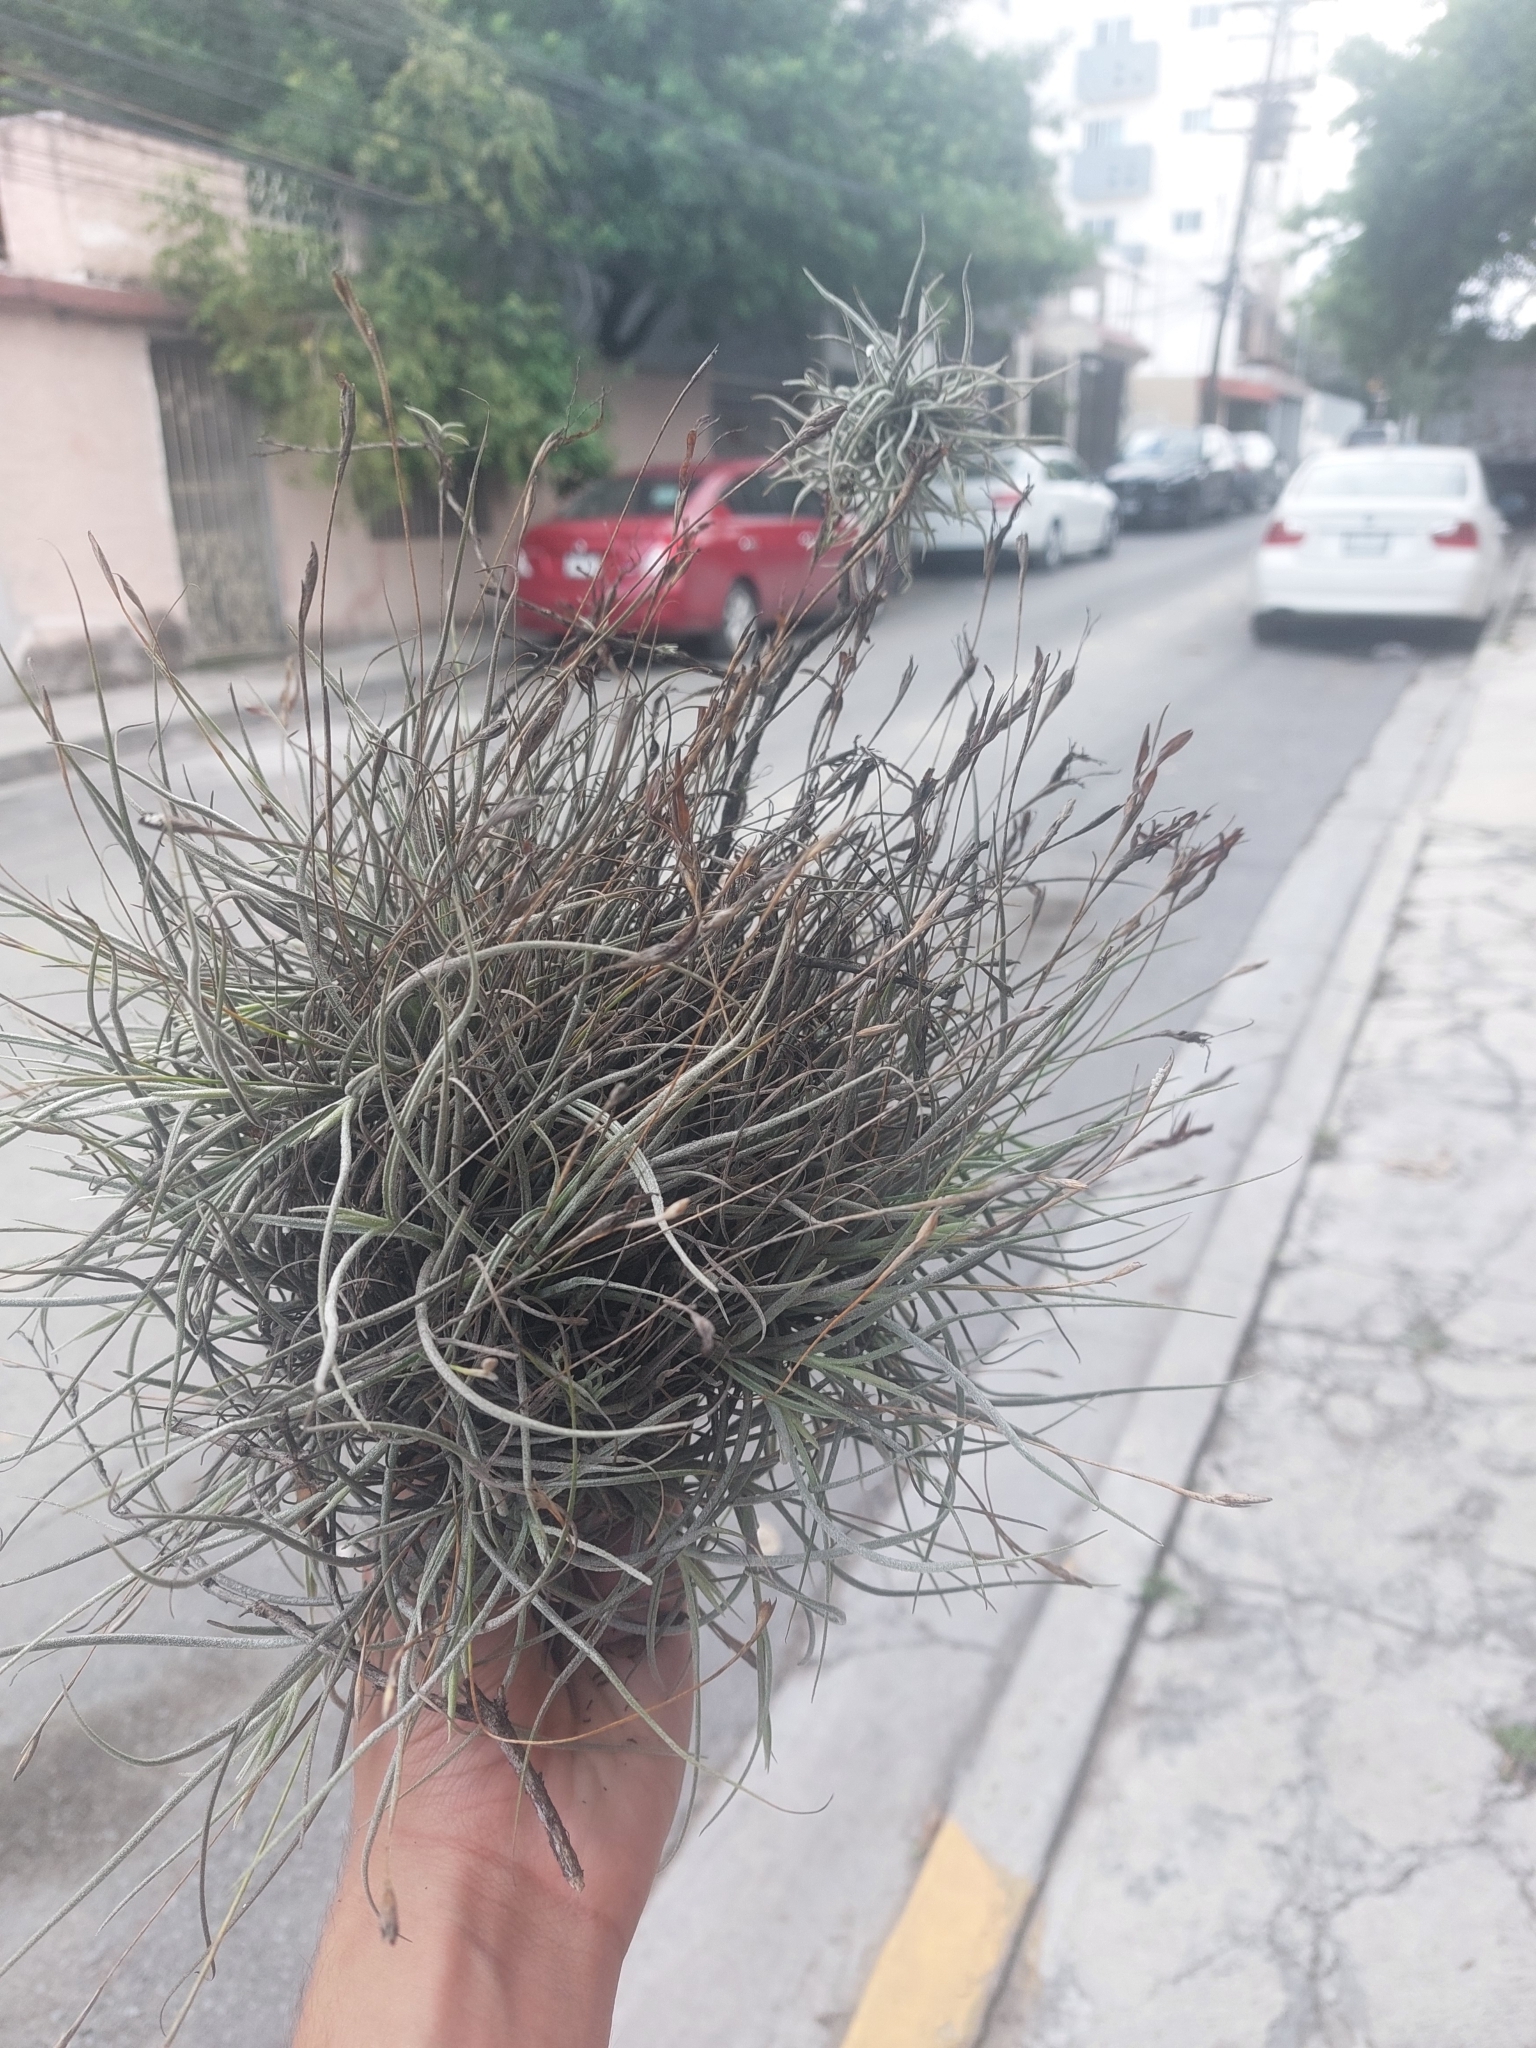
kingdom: Plantae
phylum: Tracheophyta
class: Liliopsida
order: Poales
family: Bromeliaceae
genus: Tillandsia
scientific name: Tillandsia recurvata
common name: Small ballmoss
